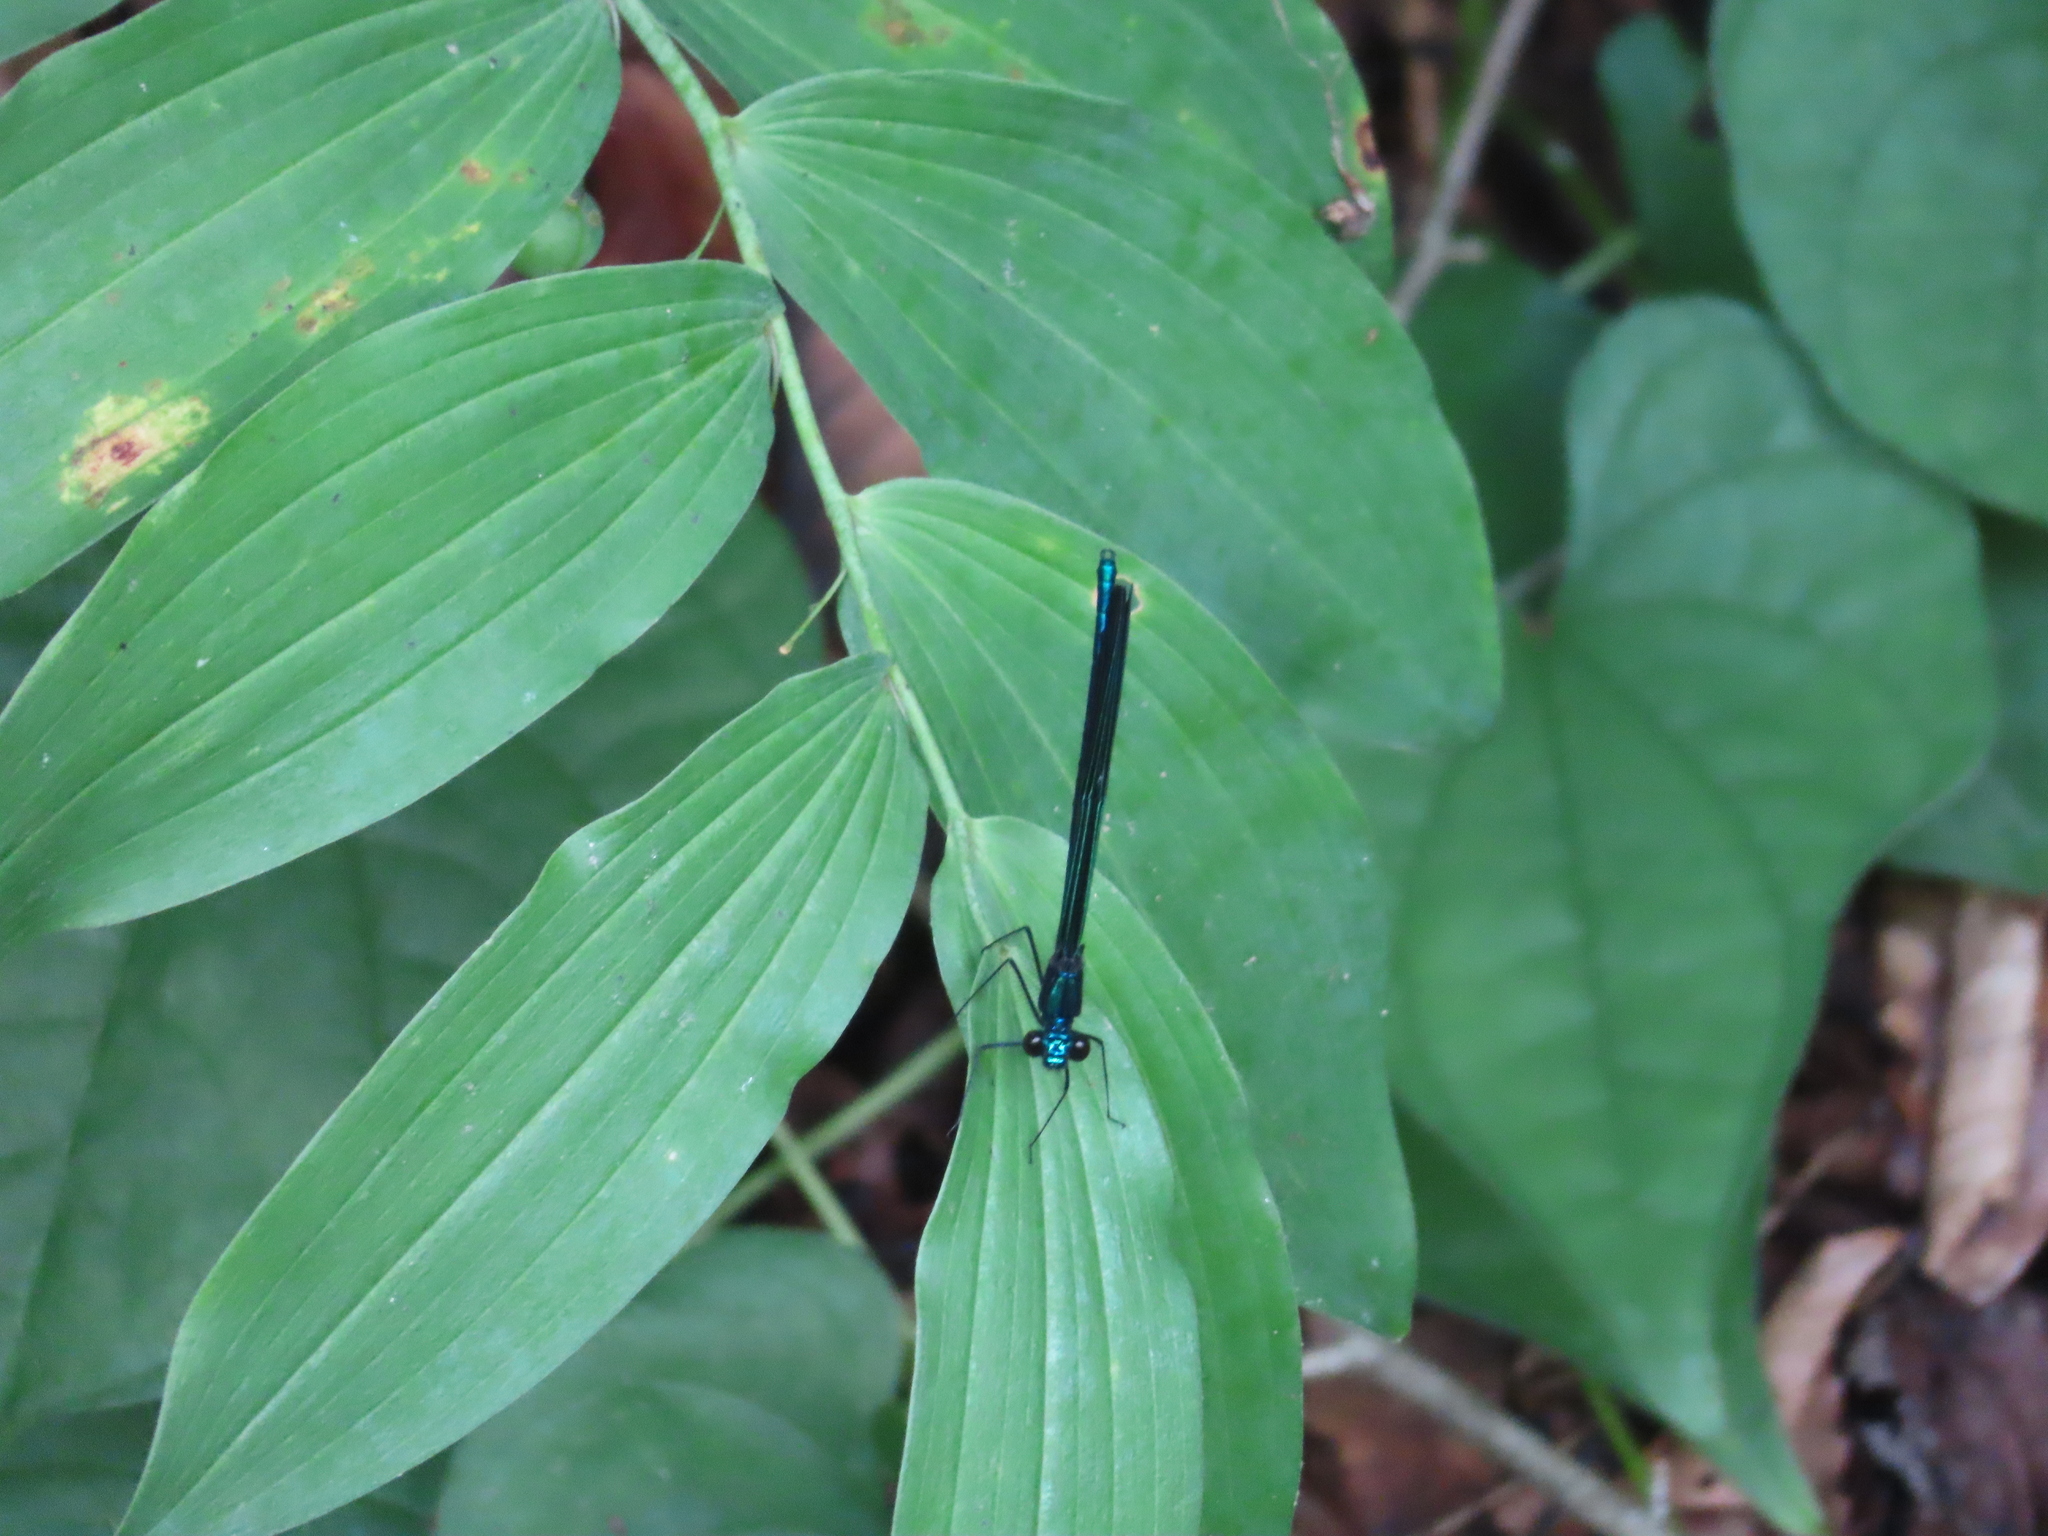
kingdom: Animalia
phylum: Arthropoda
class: Insecta
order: Odonata
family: Calopterygidae
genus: Calopteryx
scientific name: Calopteryx maculata
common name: Ebony jewelwing
